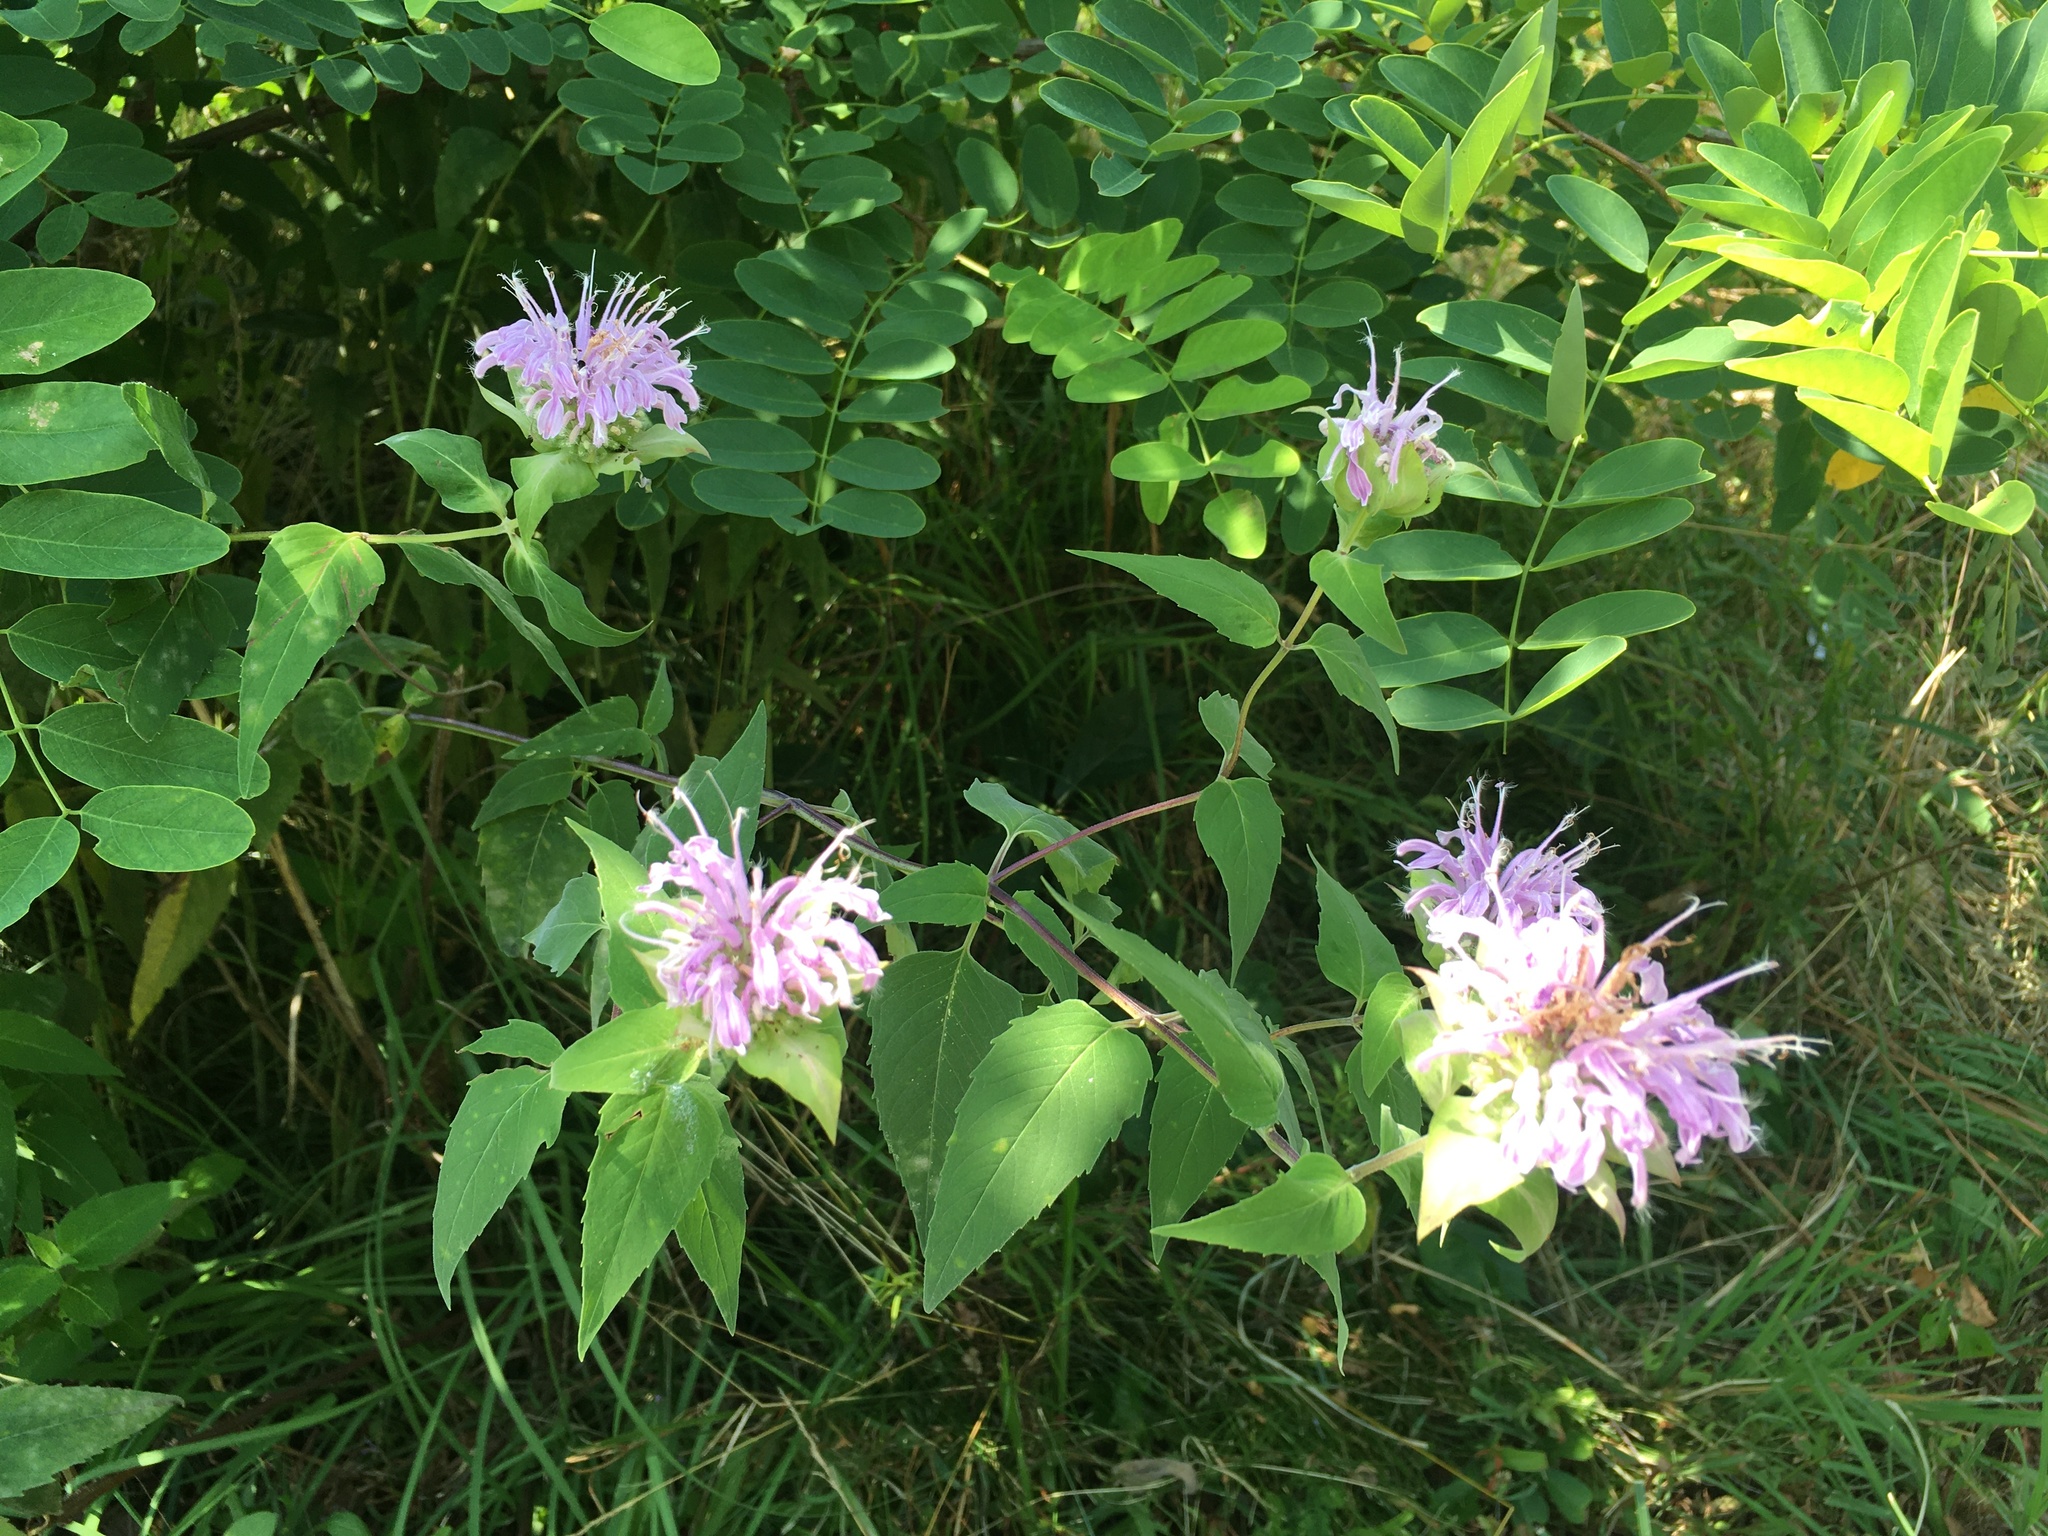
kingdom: Plantae
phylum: Tracheophyta
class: Magnoliopsida
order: Lamiales
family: Lamiaceae
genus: Monarda
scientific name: Monarda fistulosa
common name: Purple beebalm
